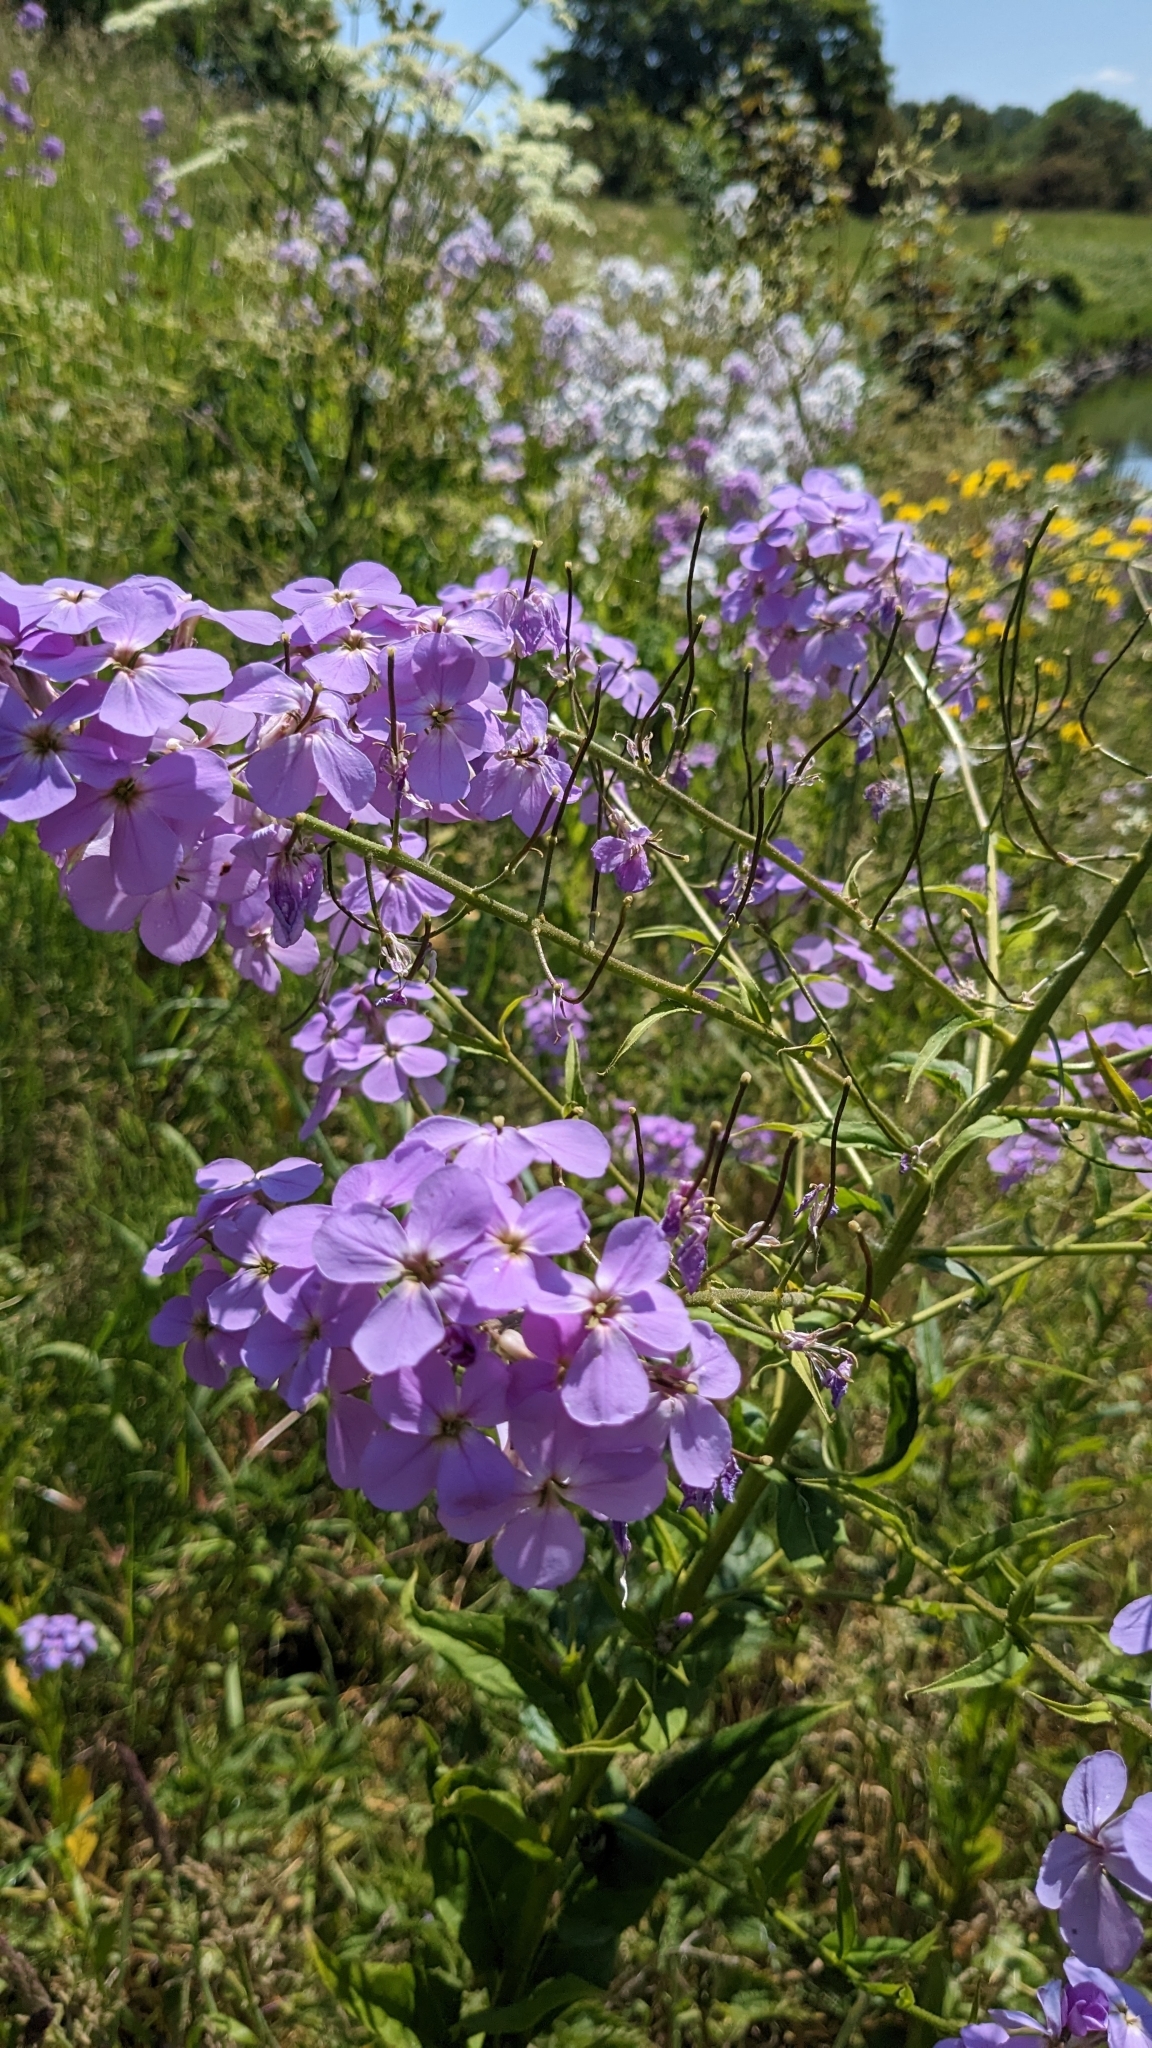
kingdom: Plantae
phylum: Tracheophyta
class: Magnoliopsida
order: Brassicales
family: Brassicaceae
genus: Hesperis
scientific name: Hesperis matronalis
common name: Dame's-violet
